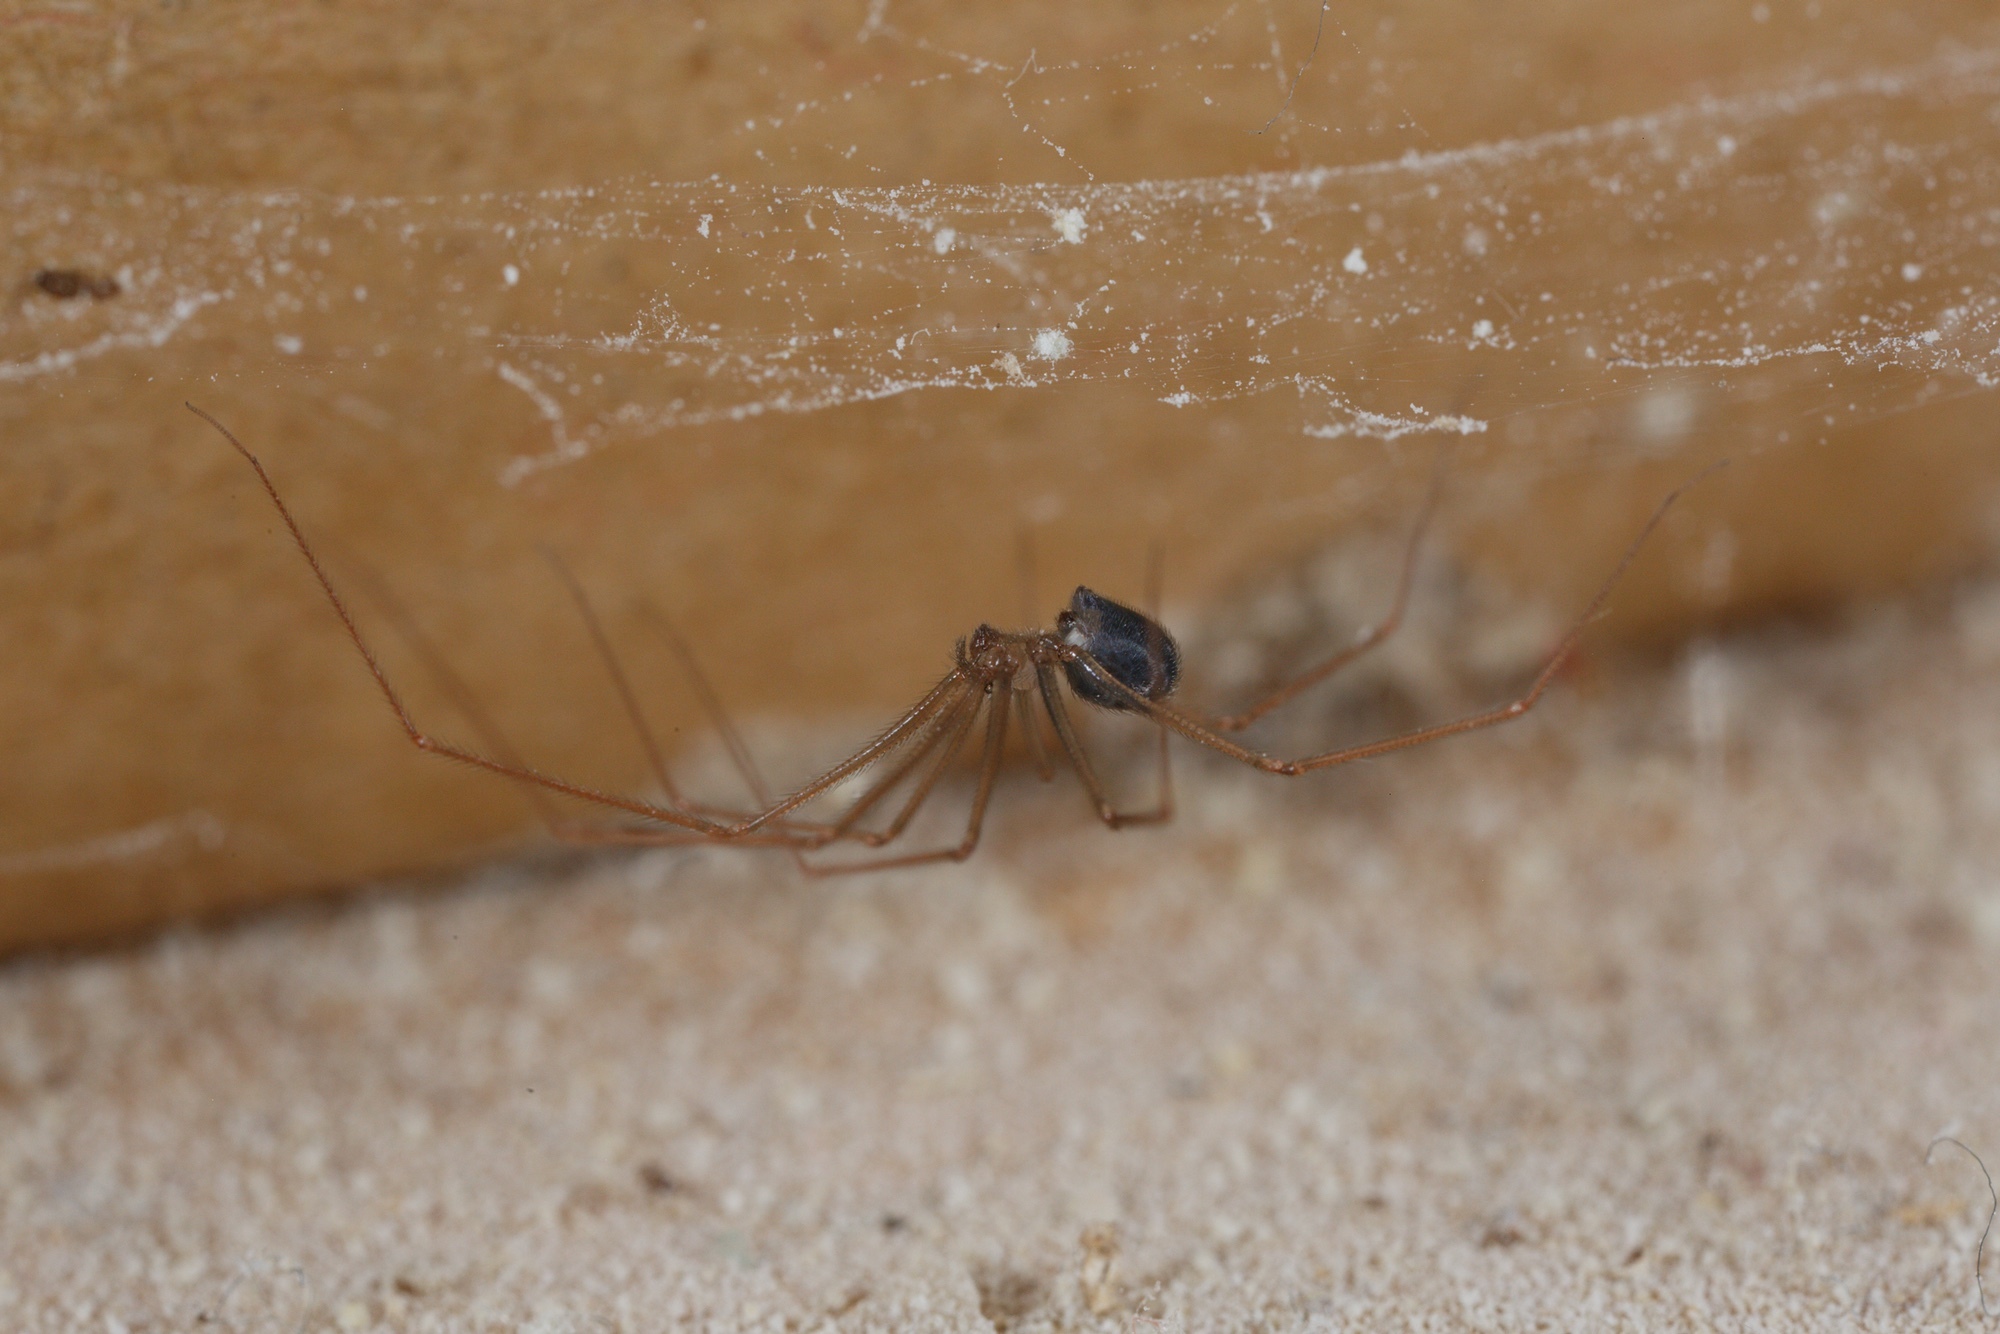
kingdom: Animalia
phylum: Arthropoda
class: Arachnida
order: Araneae
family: Pholcidae
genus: Psilochorus
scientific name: Psilochorus simoni
